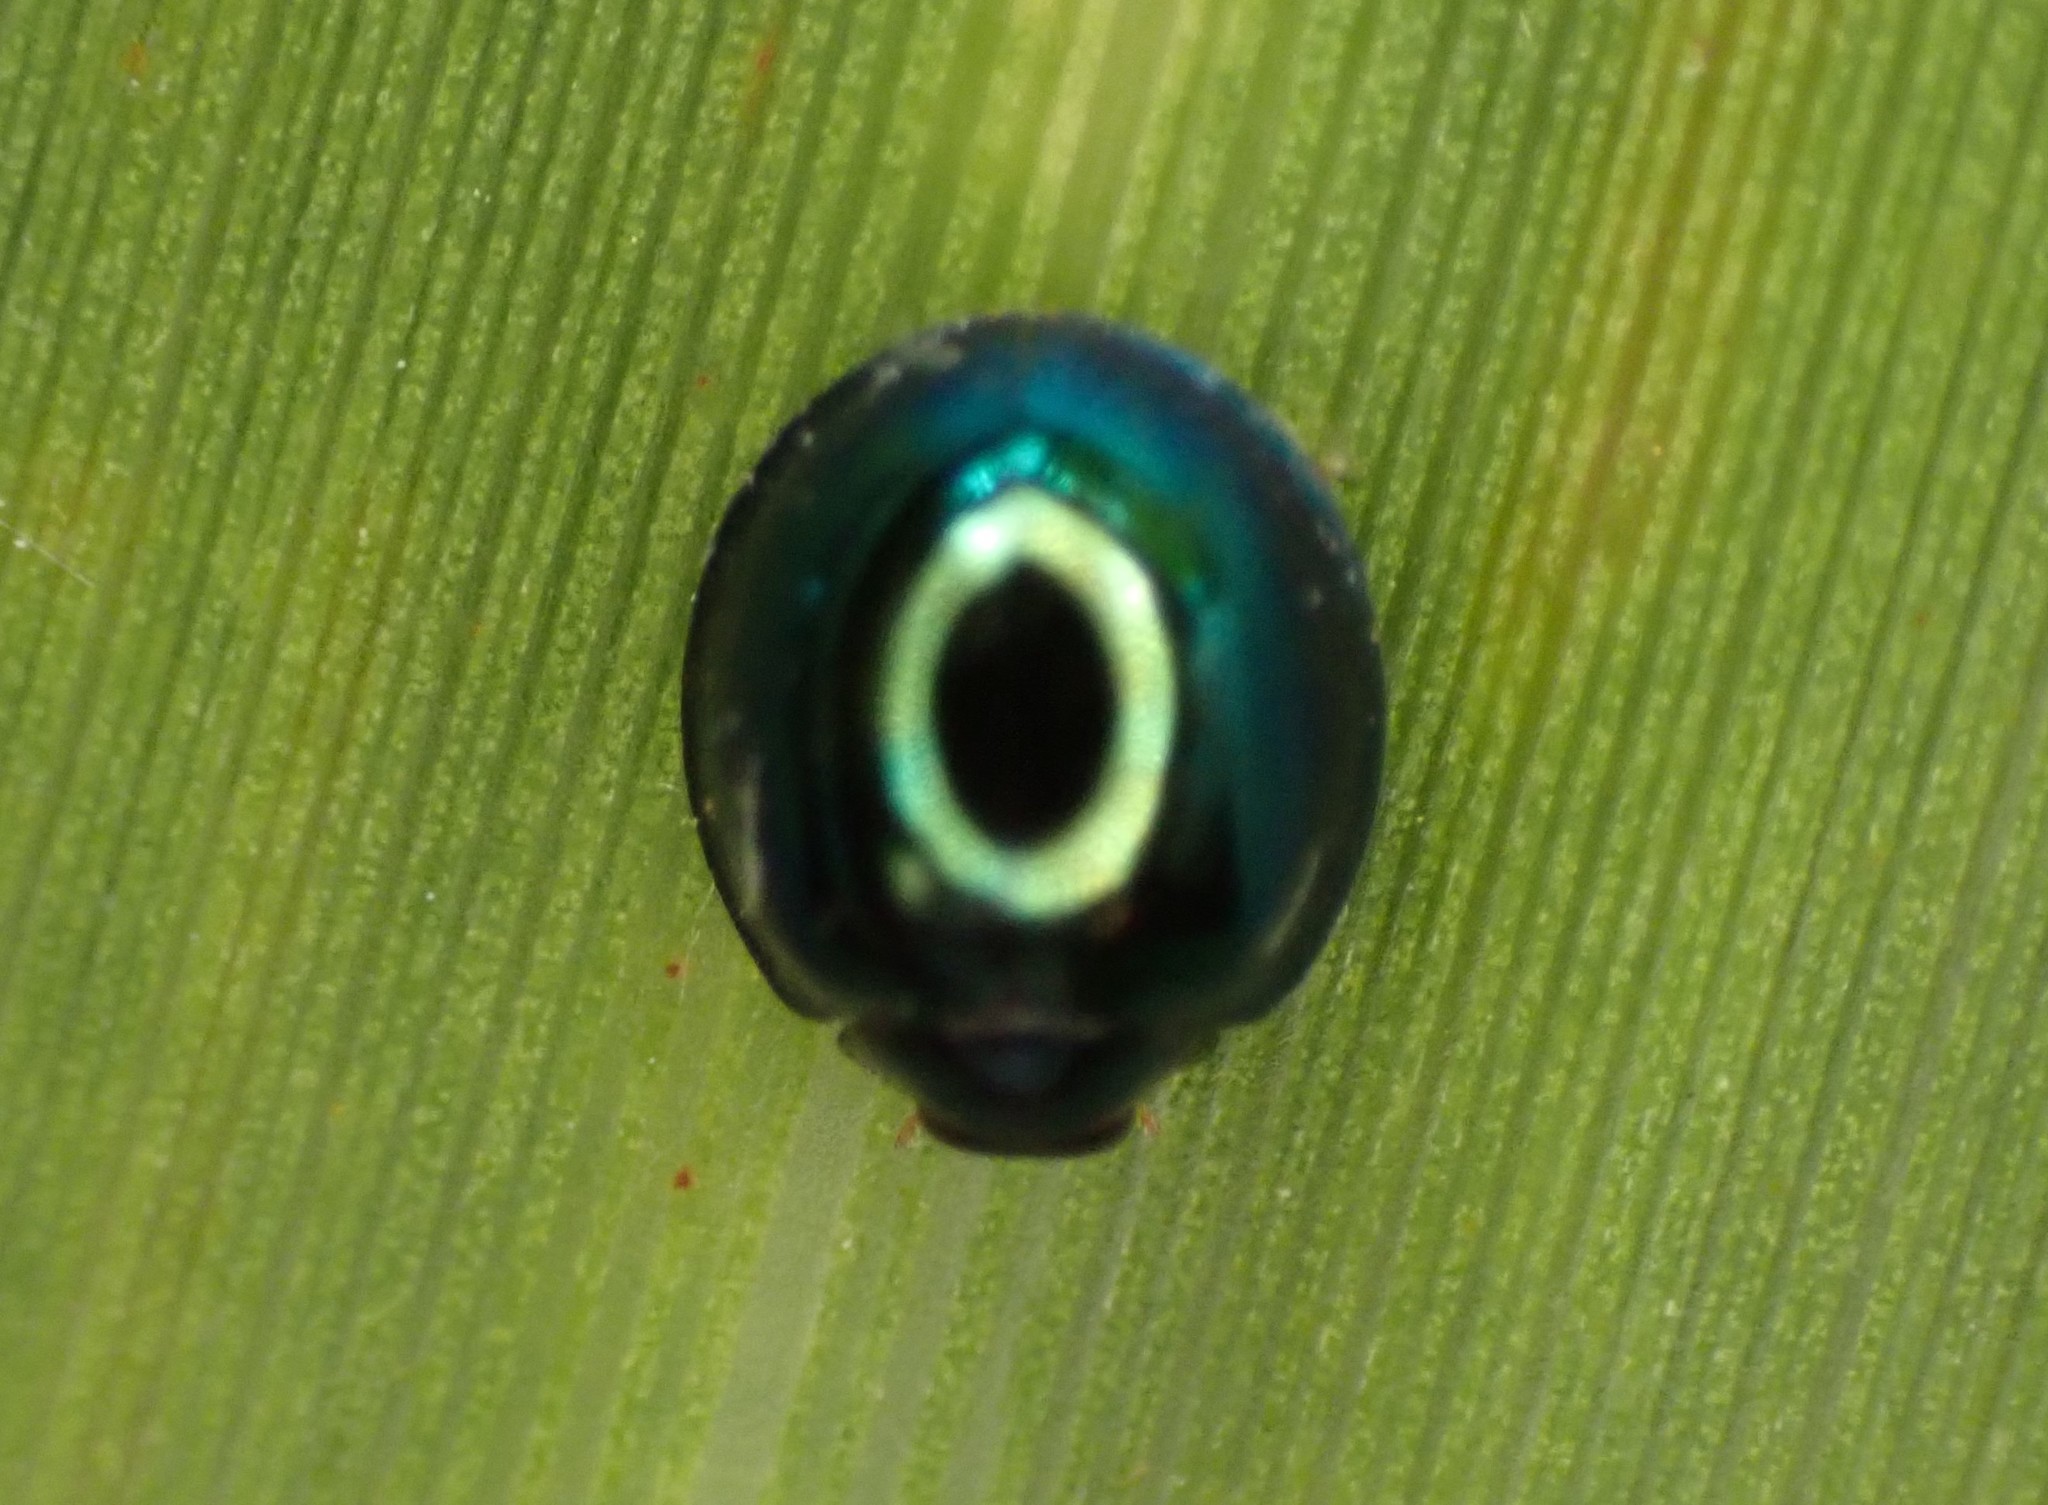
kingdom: Animalia
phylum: Arthropoda
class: Insecta
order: Coleoptera
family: Coccinellidae
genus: Halmus
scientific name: Halmus chalybeus
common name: Steel blue ladybird beetle
